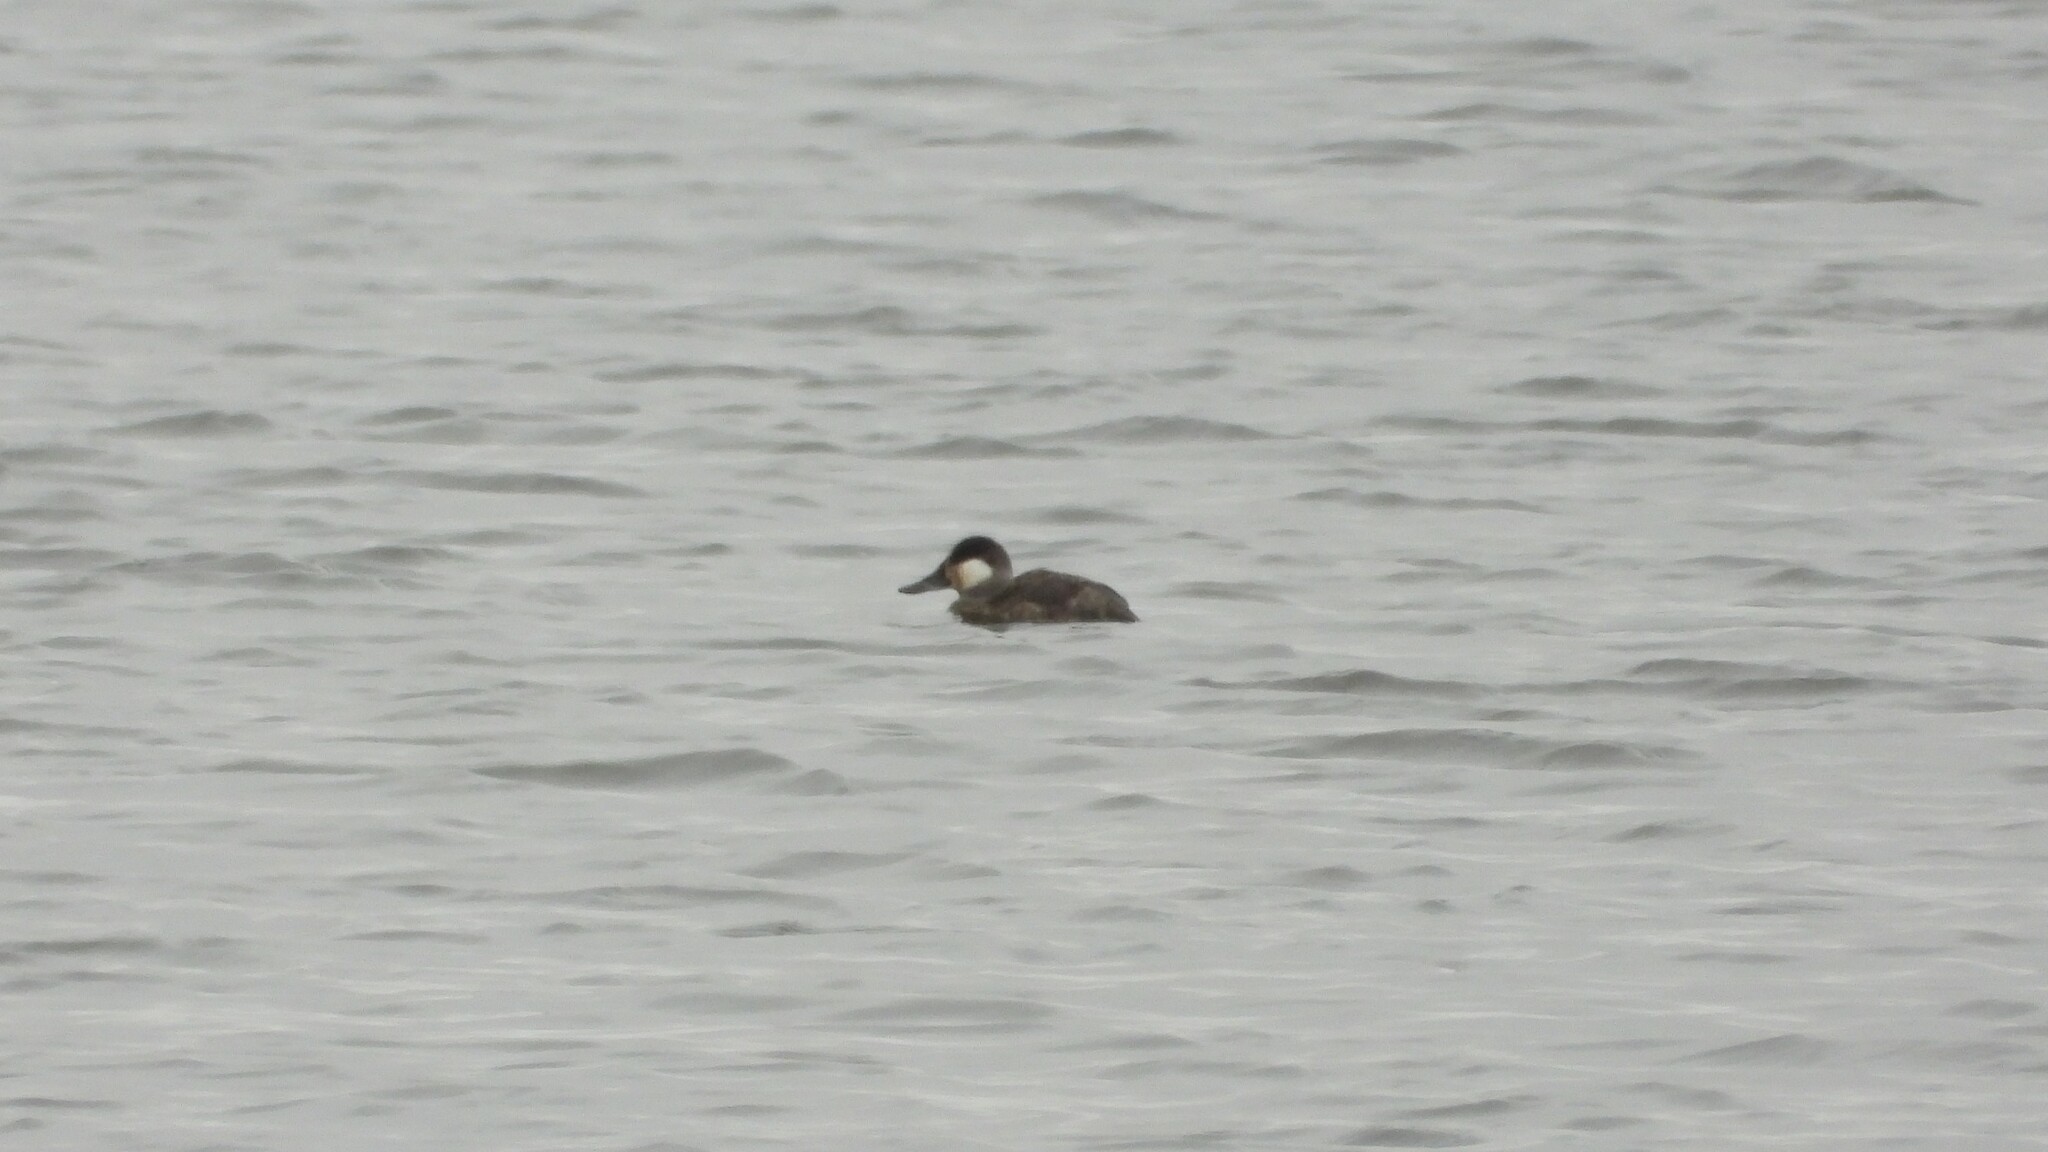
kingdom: Animalia
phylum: Chordata
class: Aves
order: Anseriformes
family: Anatidae
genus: Oxyura
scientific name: Oxyura jamaicensis
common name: Ruddy duck
